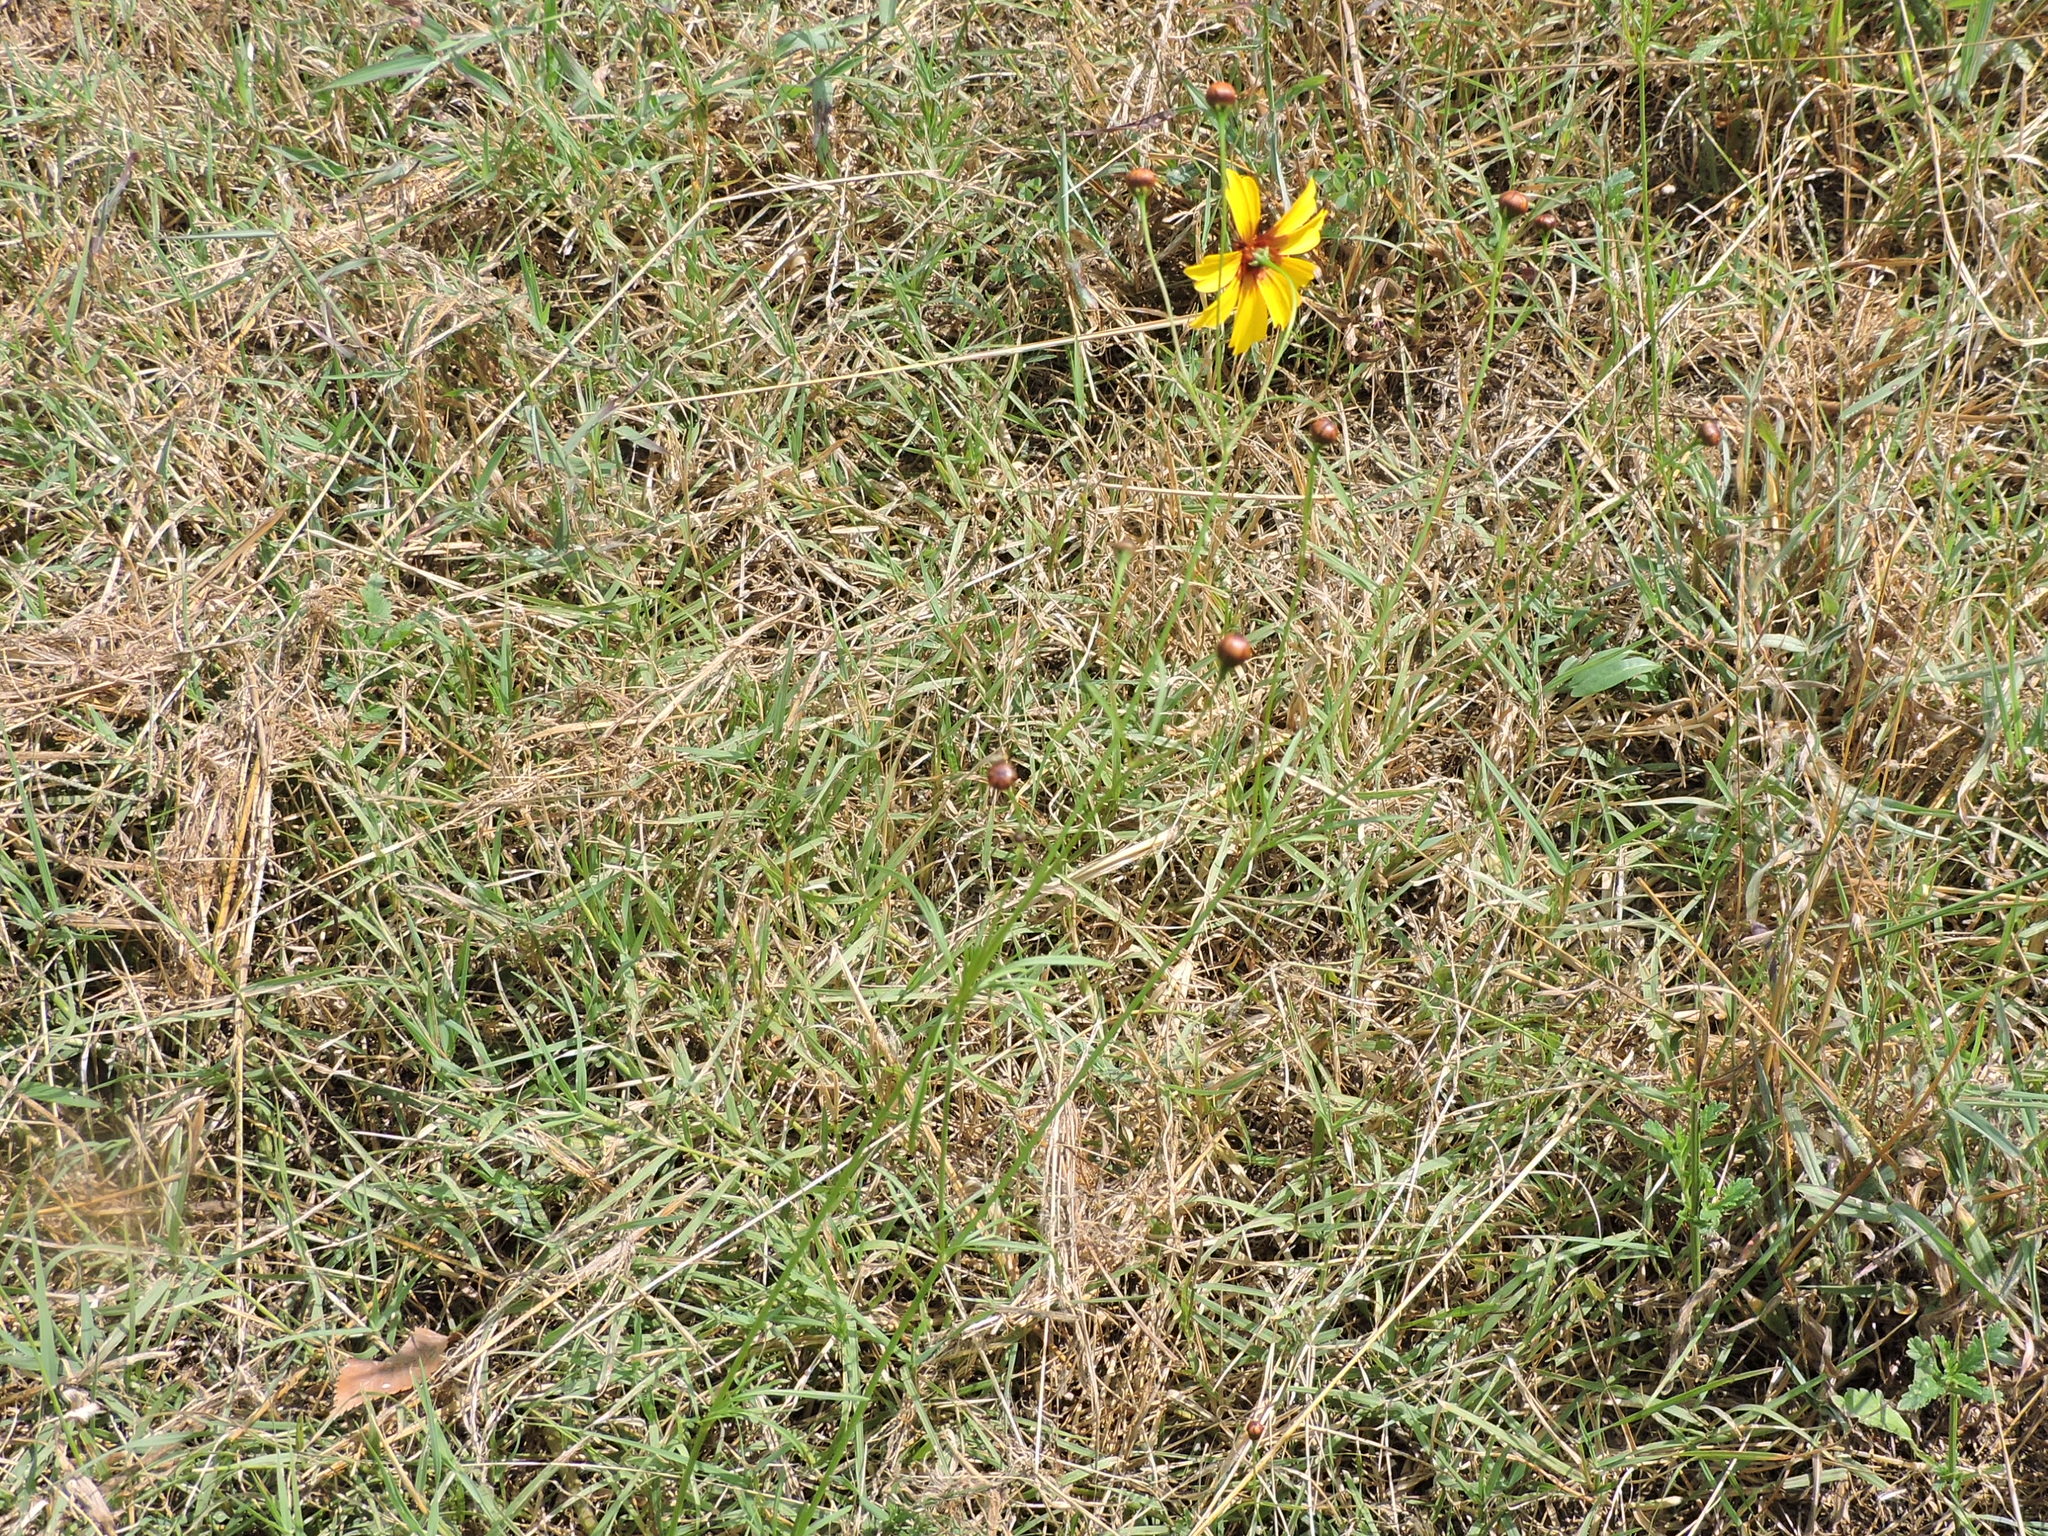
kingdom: Plantae
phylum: Tracheophyta
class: Magnoliopsida
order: Asterales
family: Asteraceae
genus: Coreopsis
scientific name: Coreopsis tinctoria
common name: Garden tickseed
